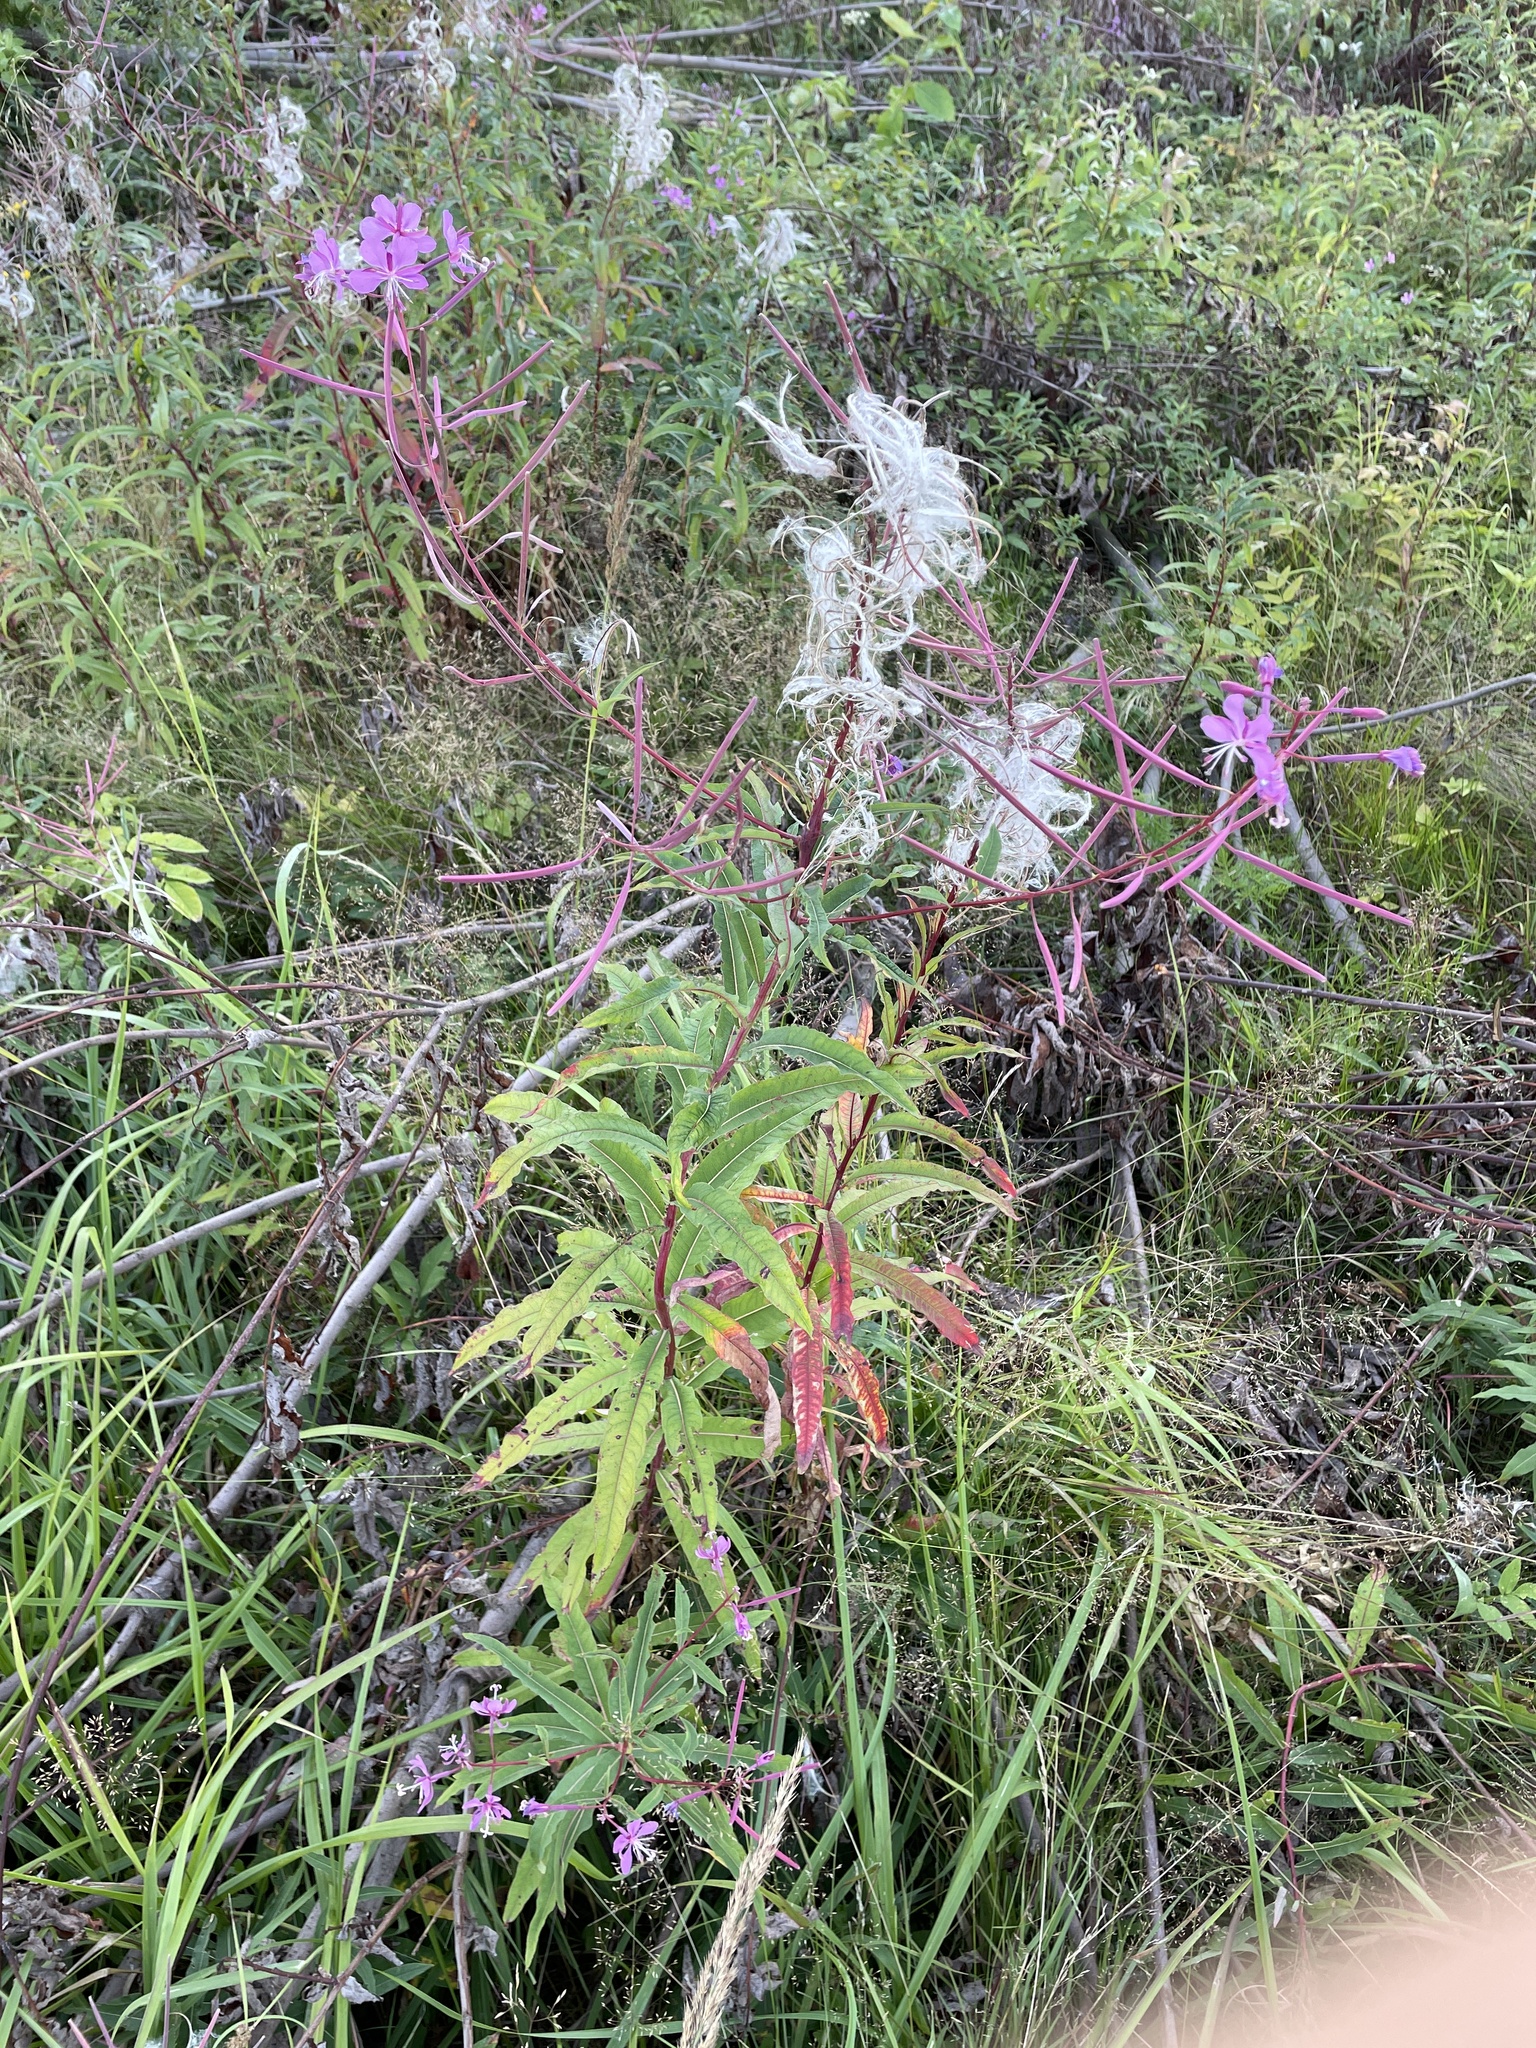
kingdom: Plantae
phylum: Tracheophyta
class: Magnoliopsida
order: Myrtales
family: Onagraceae
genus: Chamaenerion
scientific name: Chamaenerion angustifolium
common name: Fireweed
